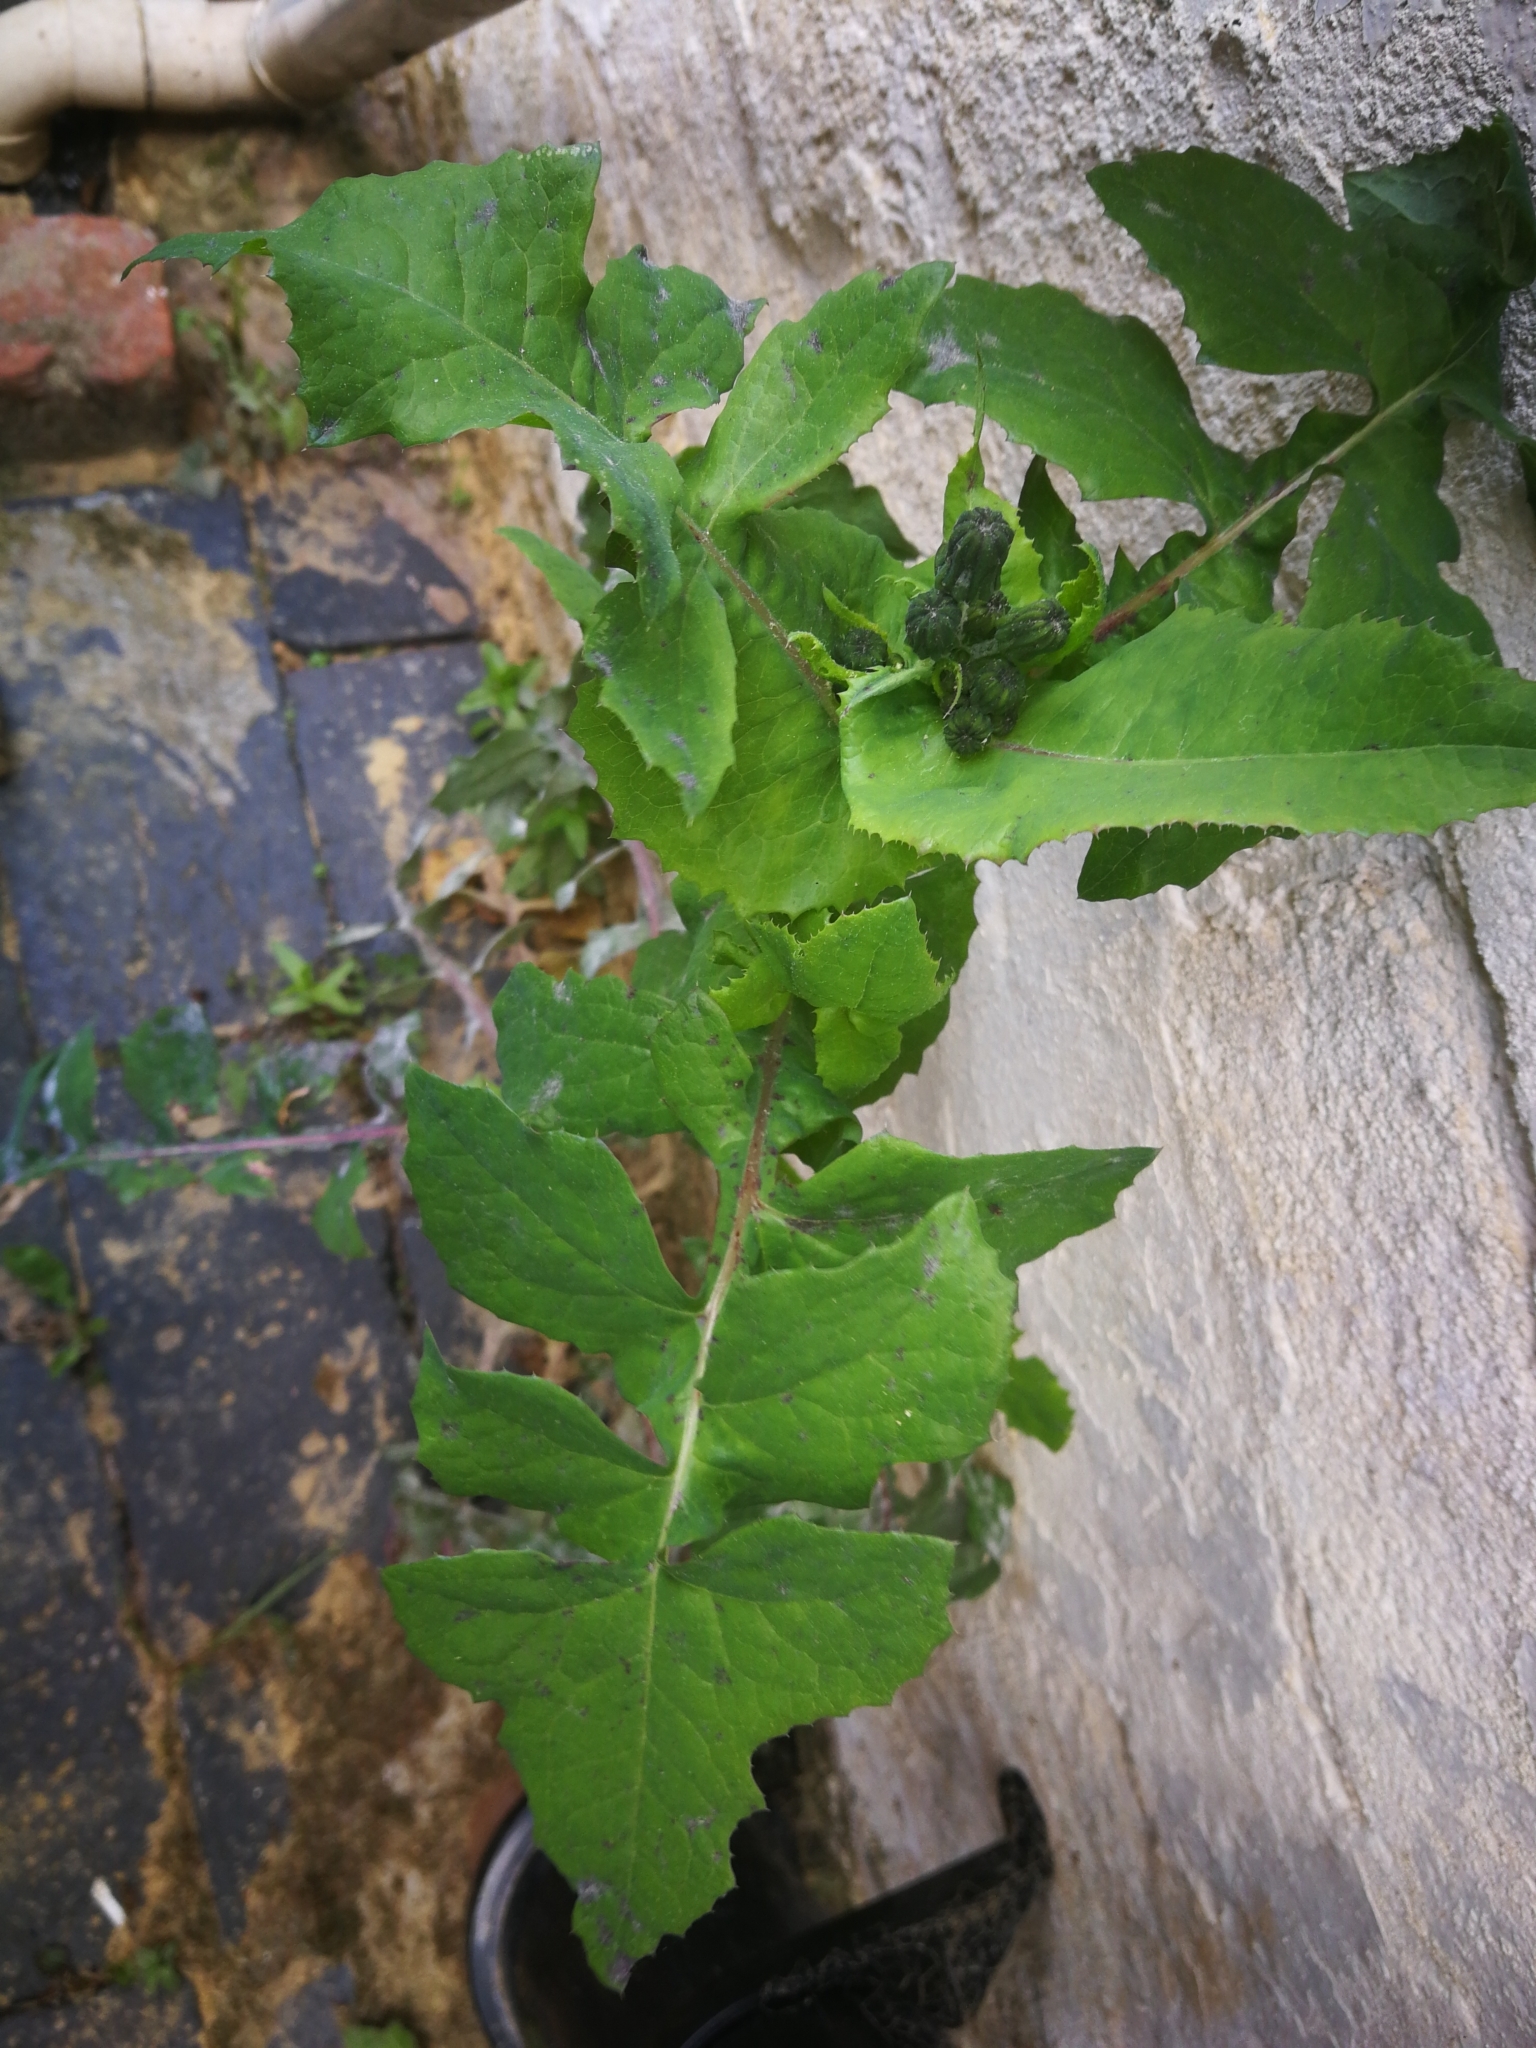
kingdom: Plantae
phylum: Tracheophyta
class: Magnoliopsida
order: Asterales
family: Asteraceae
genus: Sonchus
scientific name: Sonchus oleraceus
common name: Common sowthistle
